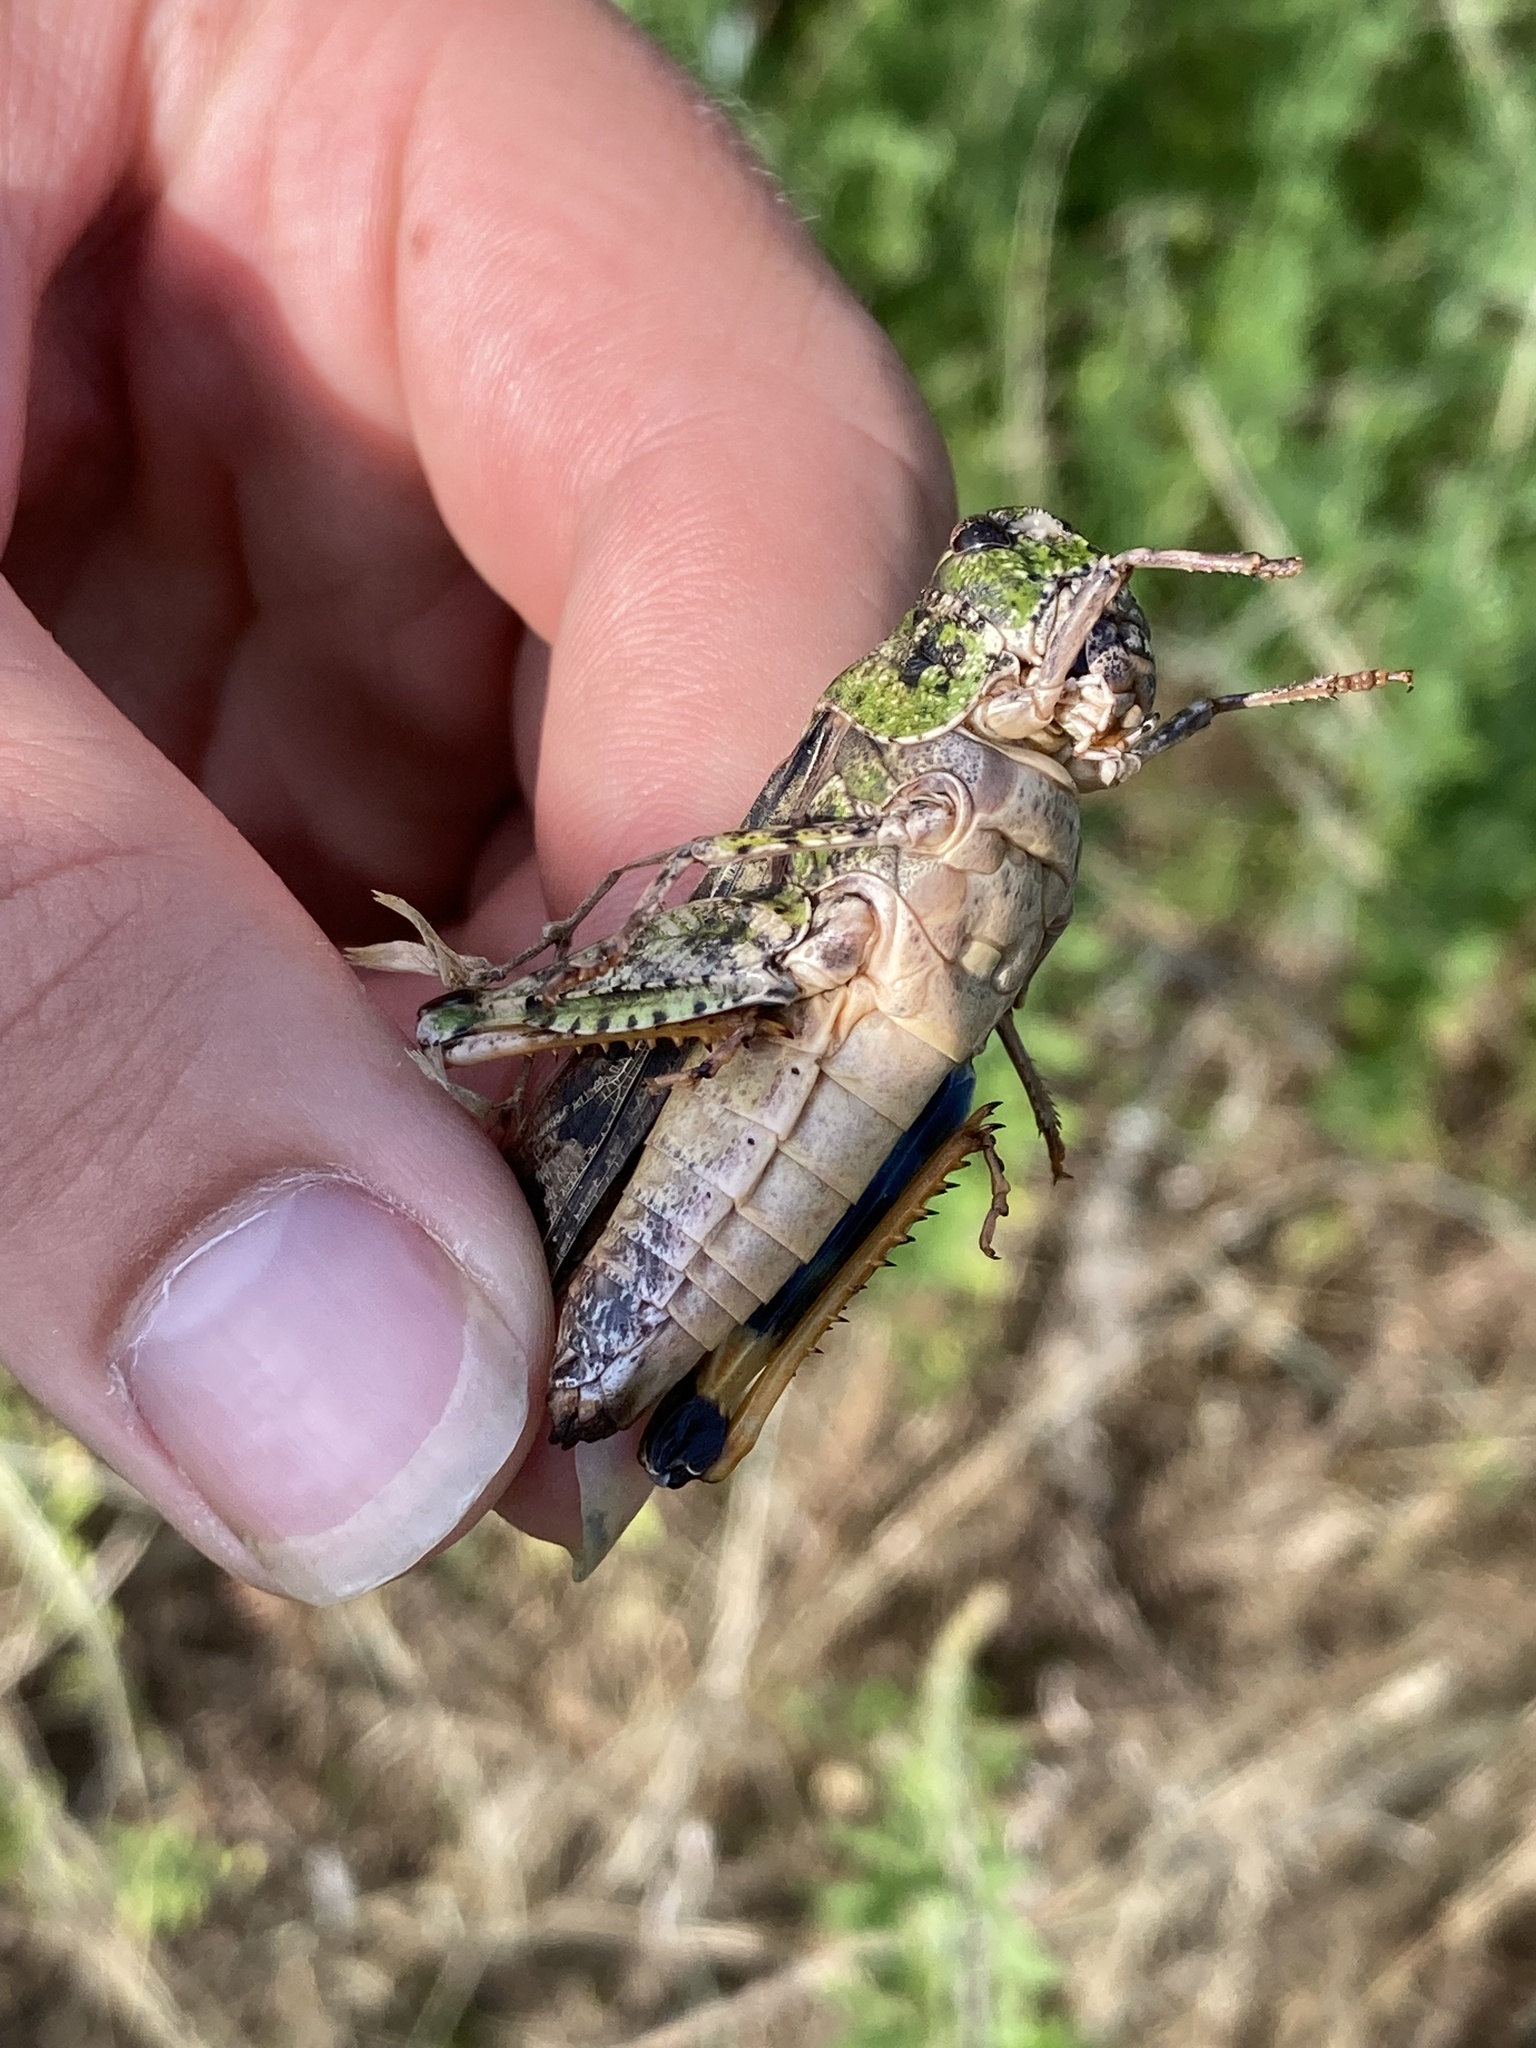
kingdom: Animalia
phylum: Arthropoda
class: Insecta
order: Orthoptera
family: Acrididae
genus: Pardalophora
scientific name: Pardalophora phoenicoptera
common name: Orange-winged grasshopper
